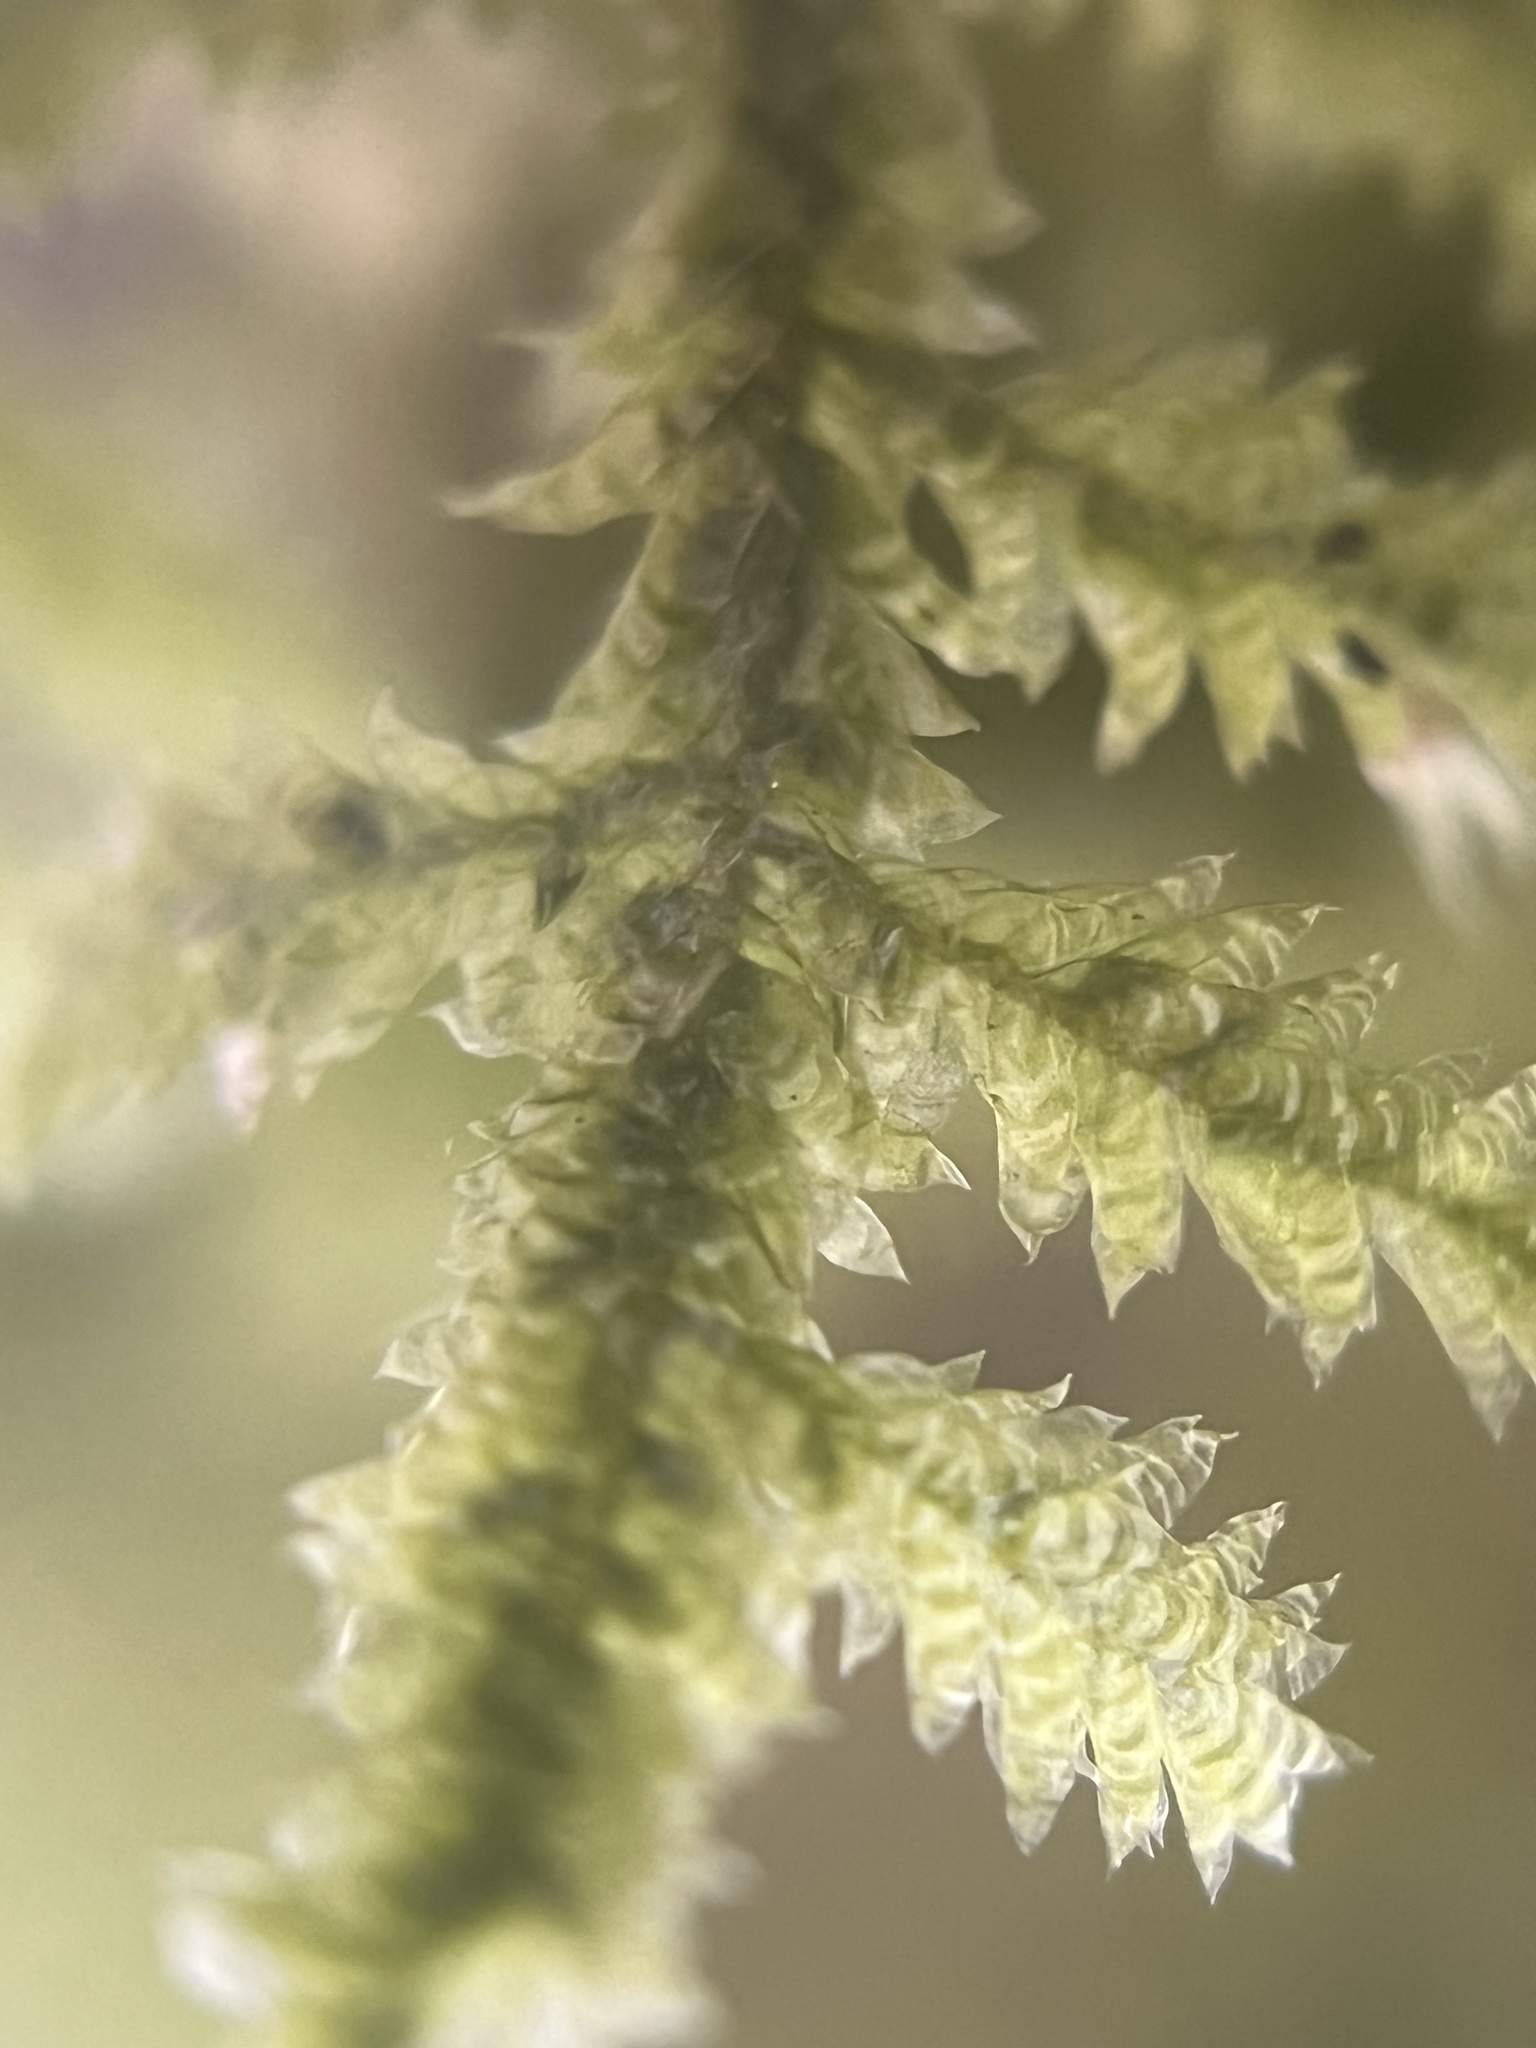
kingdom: Plantae
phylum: Bryophyta
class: Bryopsida
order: Hypnales
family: Neckeraceae
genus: Neckera
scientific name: Neckera pennata
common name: Feathery neckera
